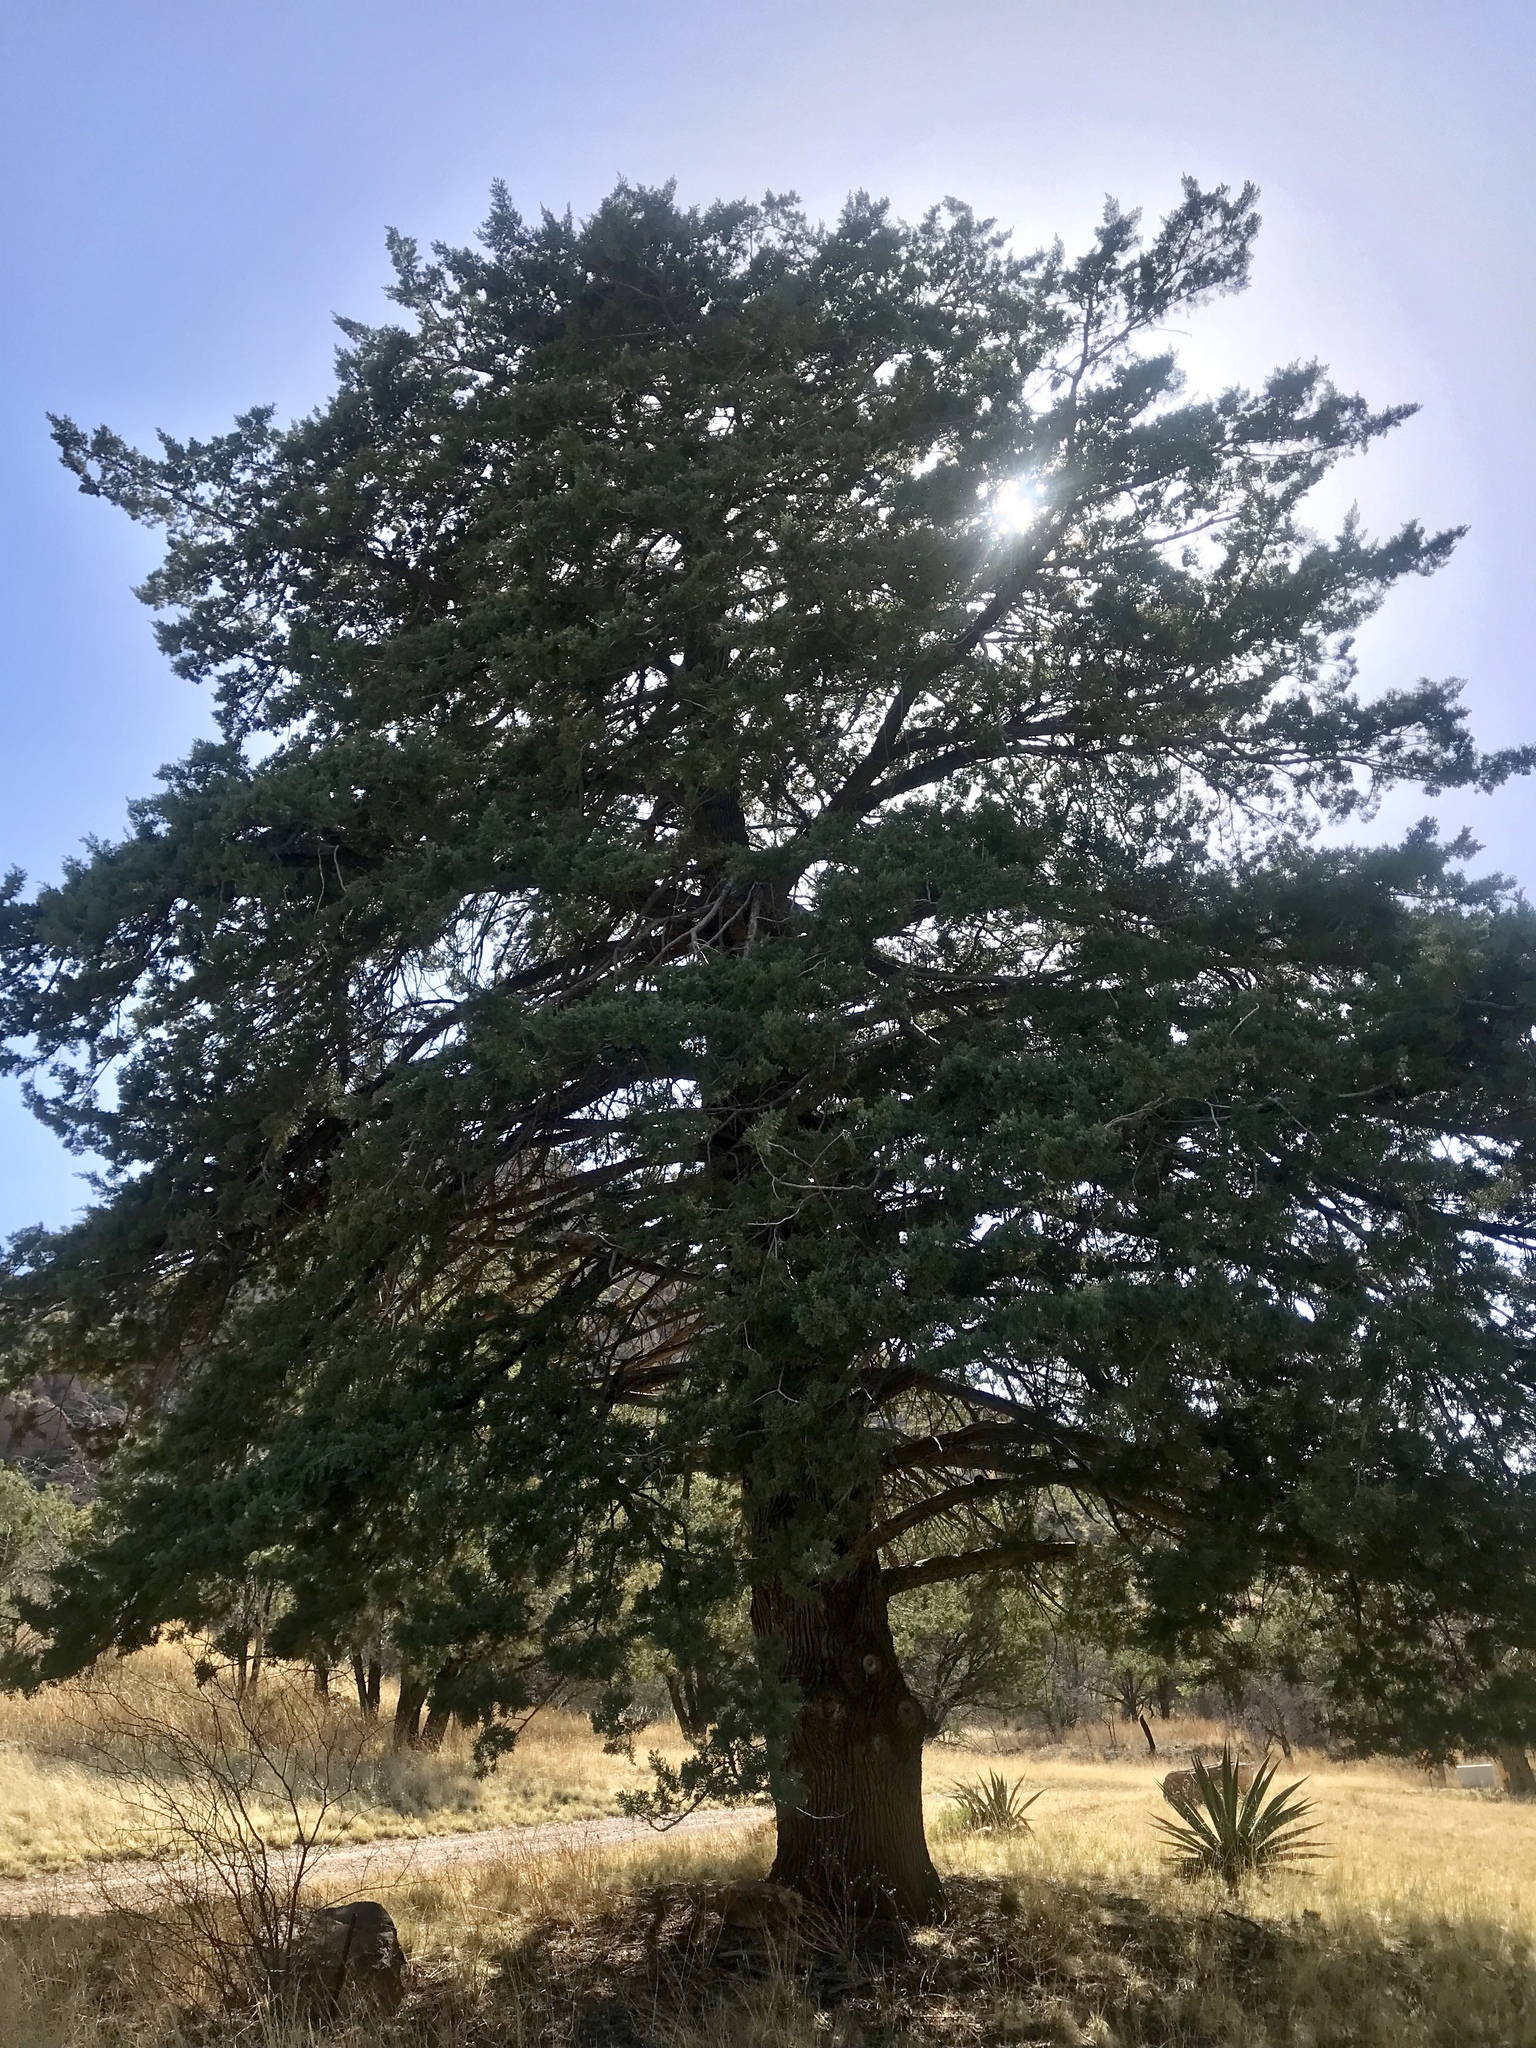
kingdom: Plantae
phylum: Tracheophyta
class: Pinopsida
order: Pinales
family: Cupressaceae
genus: Cupressus
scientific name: Cupressus arizonica
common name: Arizona cypress
